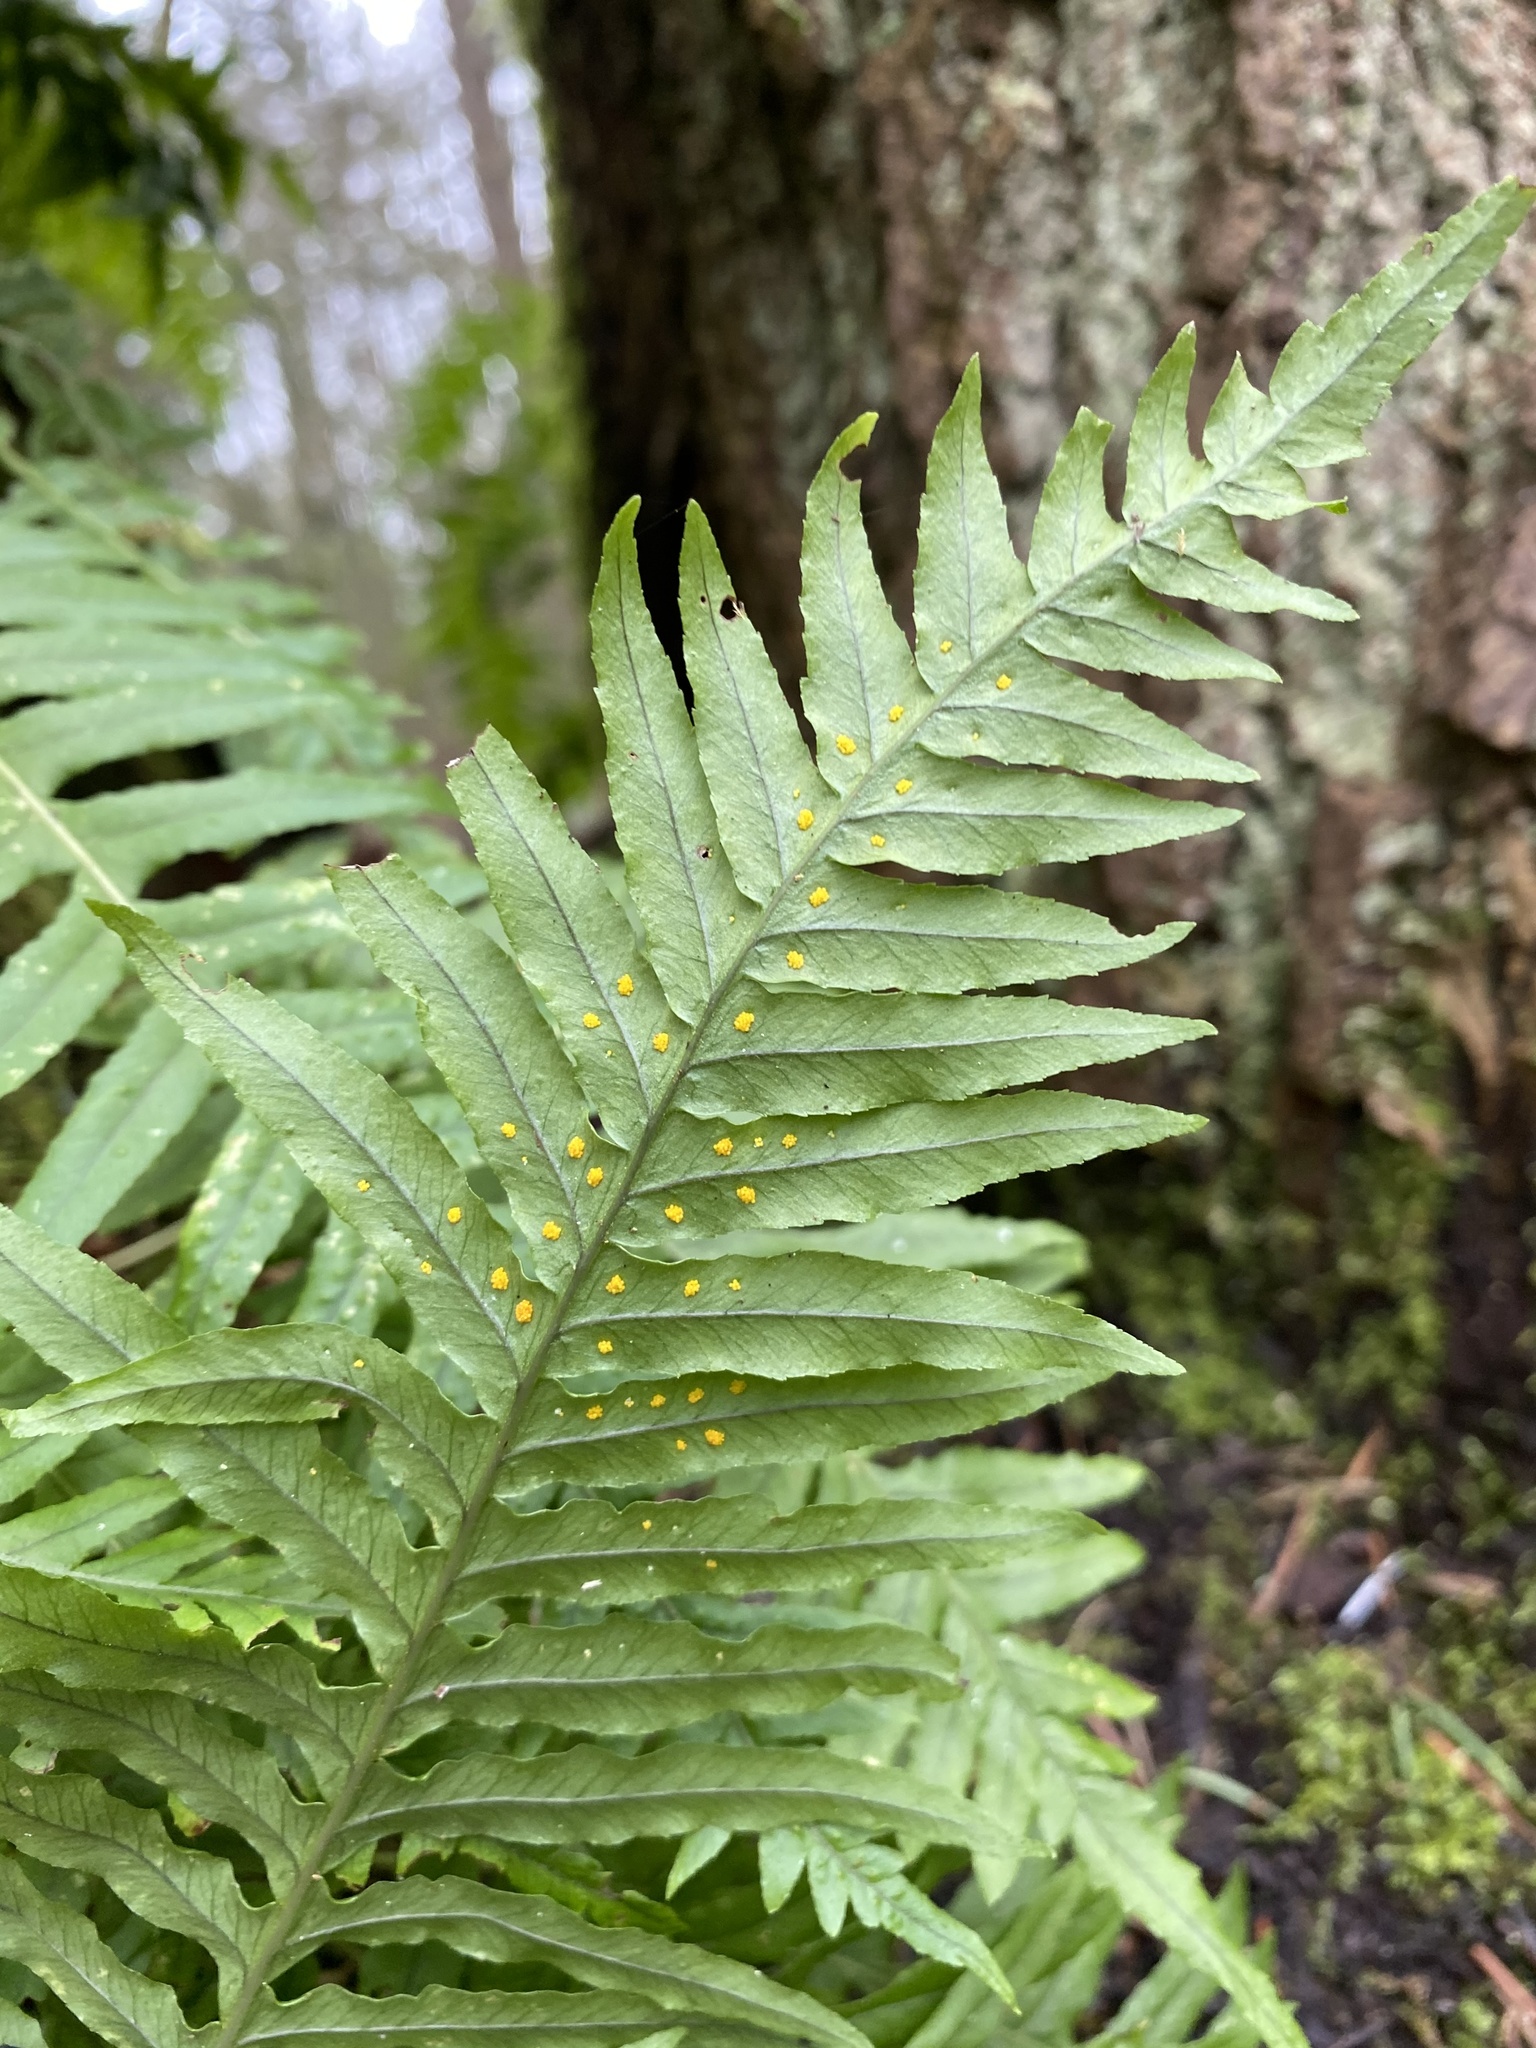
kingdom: Plantae
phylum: Tracheophyta
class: Polypodiopsida
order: Polypodiales
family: Polypodiaceae
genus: Polypodium
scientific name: Polypodium glycyrrhiza
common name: Licorice fern
